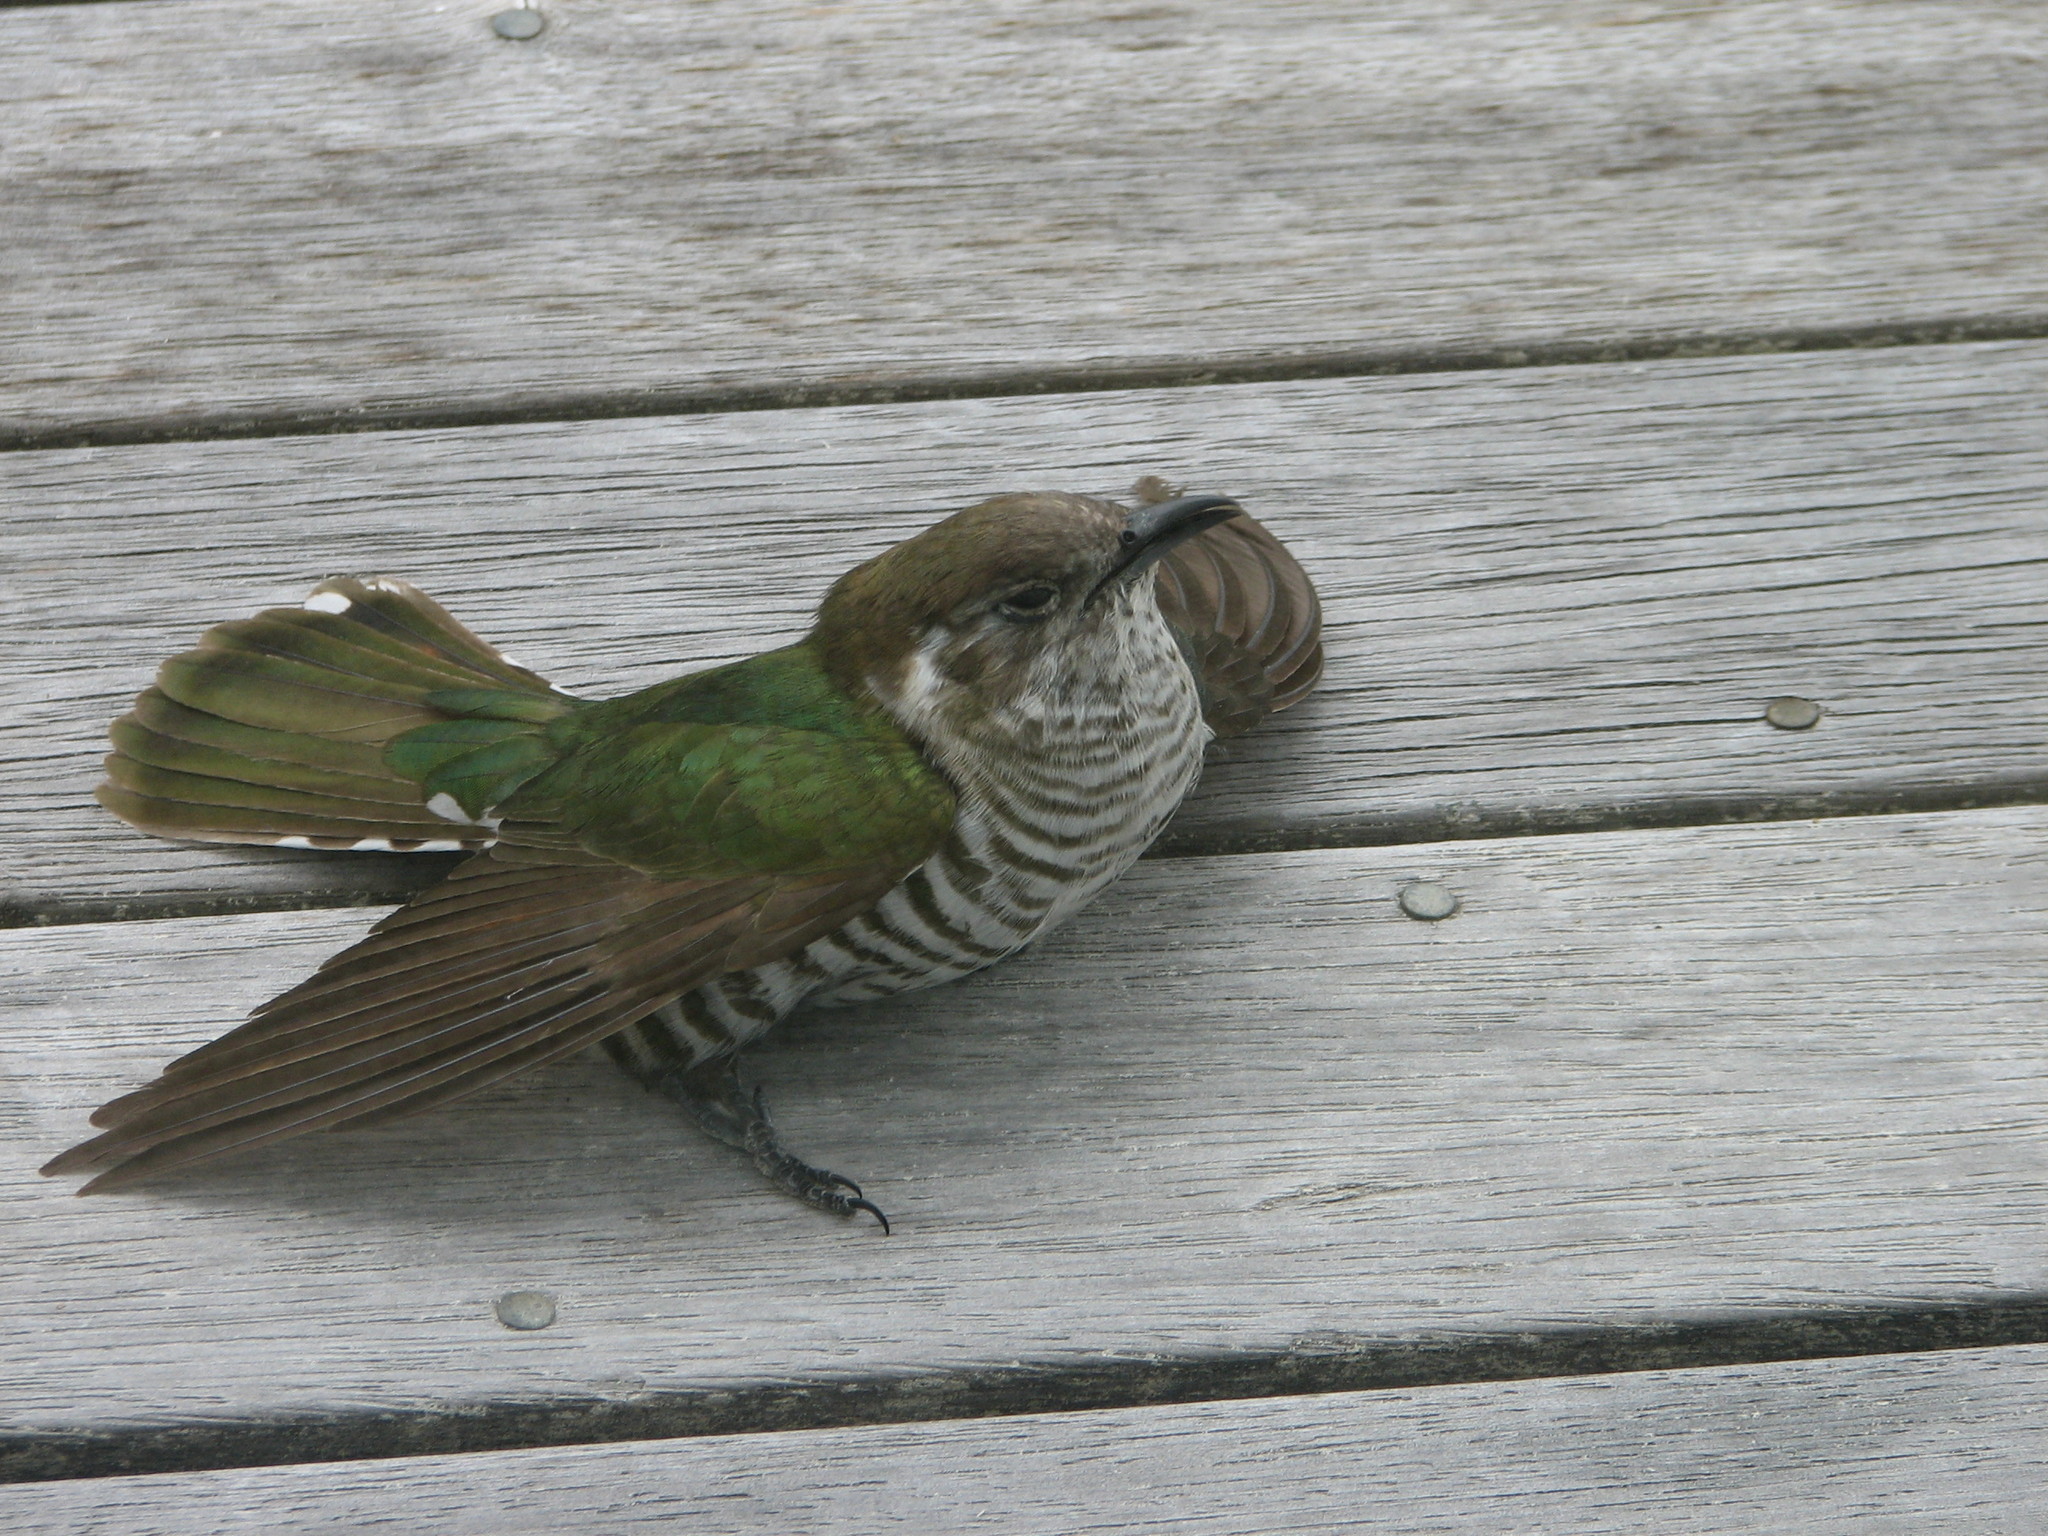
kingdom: Animalia
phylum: Chordata
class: Aves
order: Cuculiformes
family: Cuculidae
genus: Chrysococcyx
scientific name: Chrysococcyx lucidus
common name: Shining bronze cuckoo
